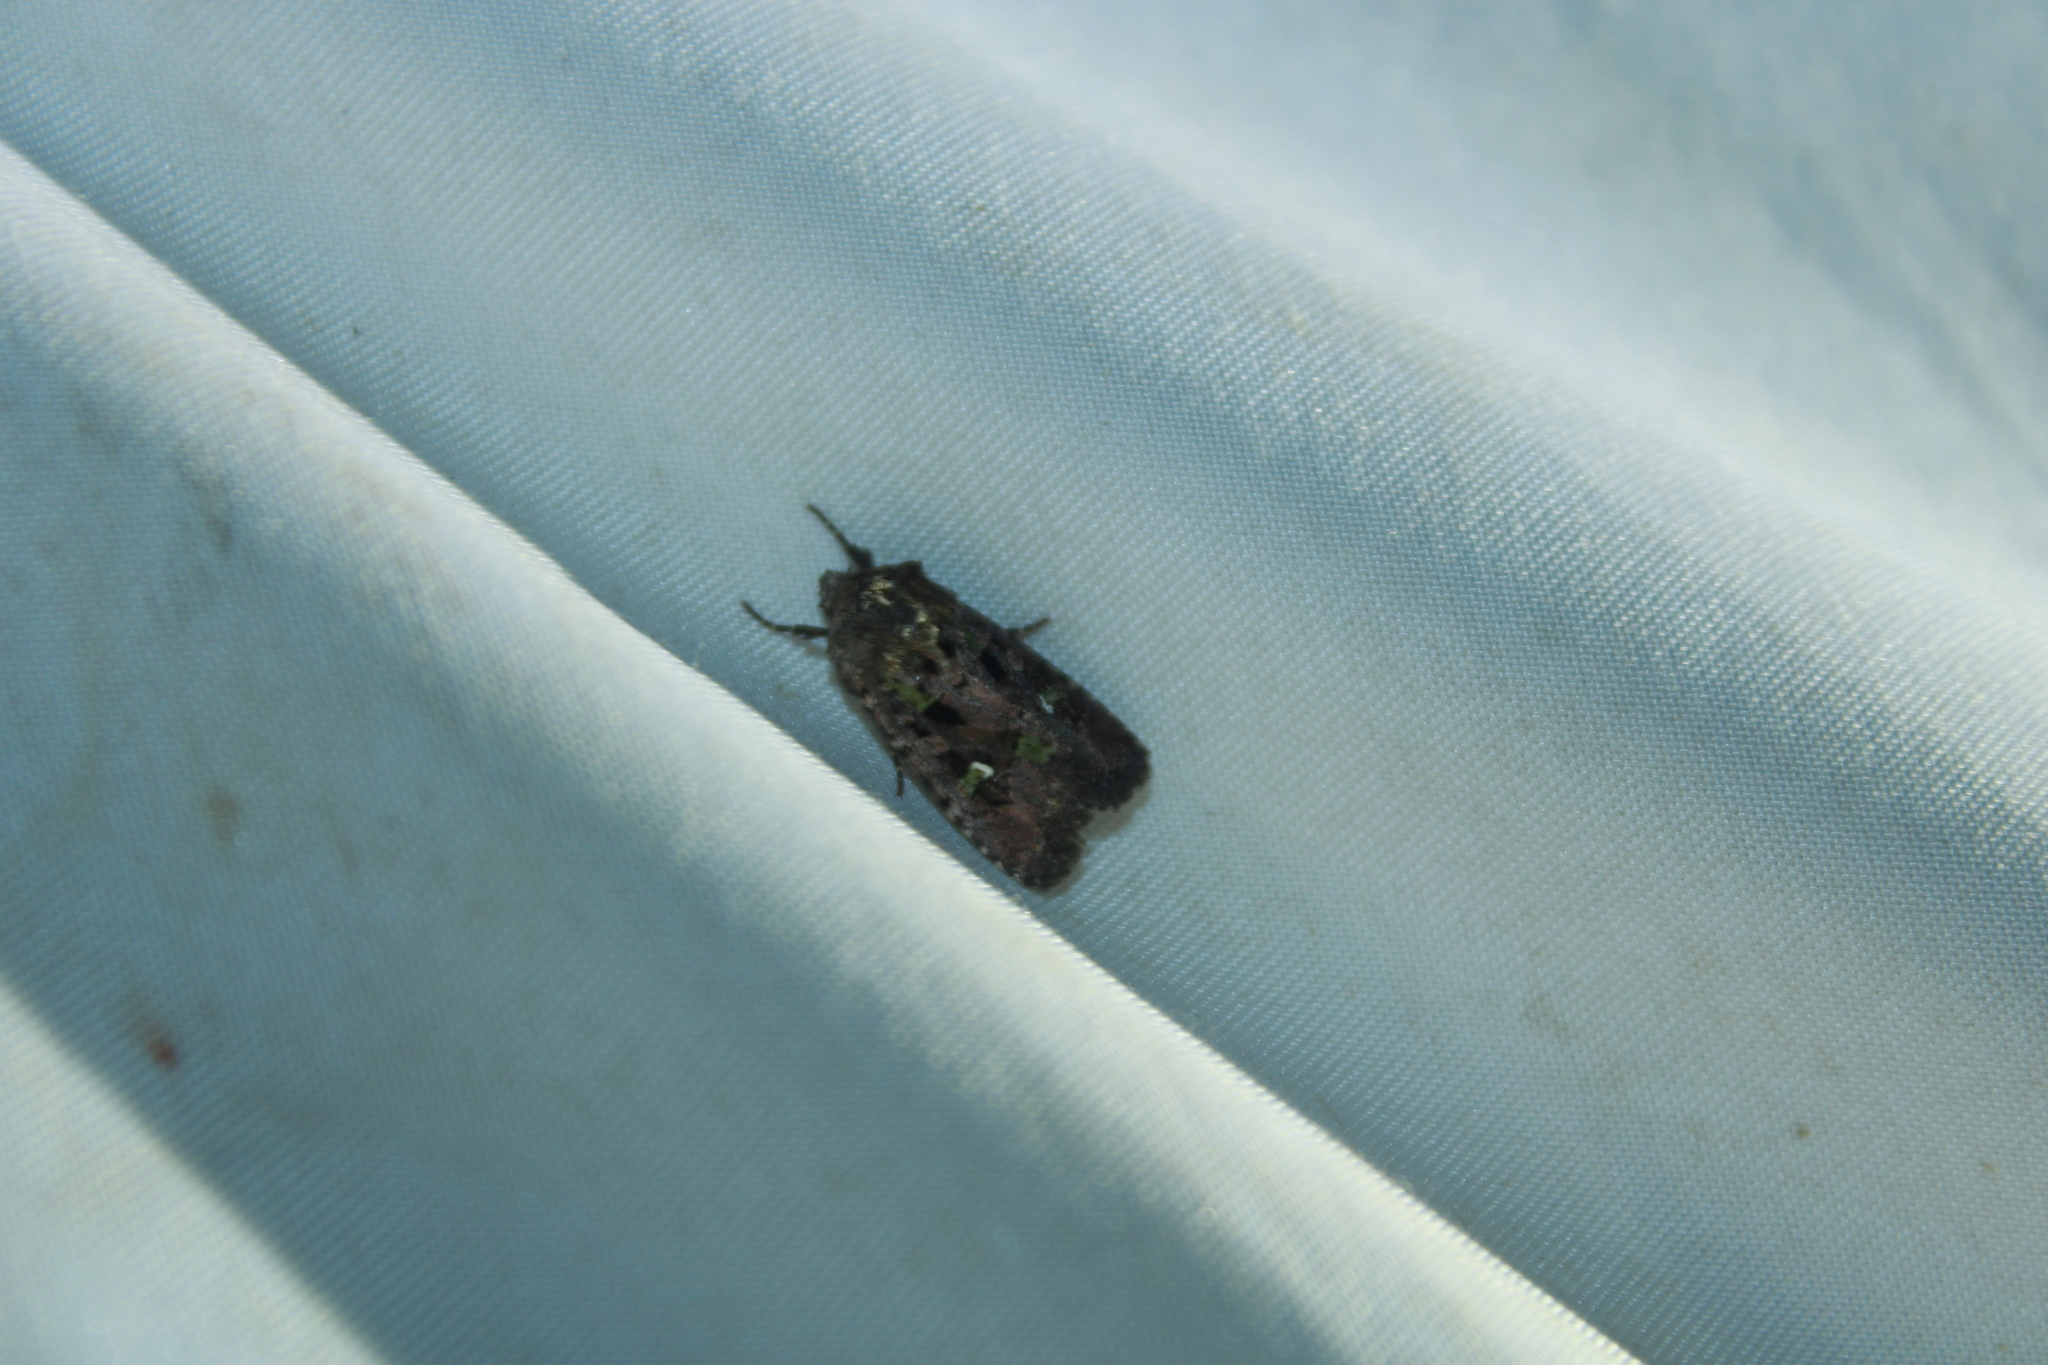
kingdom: Animalia
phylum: Arthropoda
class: Insecta
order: Lepidoptera
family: Noctuidae
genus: Lacinipolia
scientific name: Lacinipolia renigera
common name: Kidney-spotted minor
